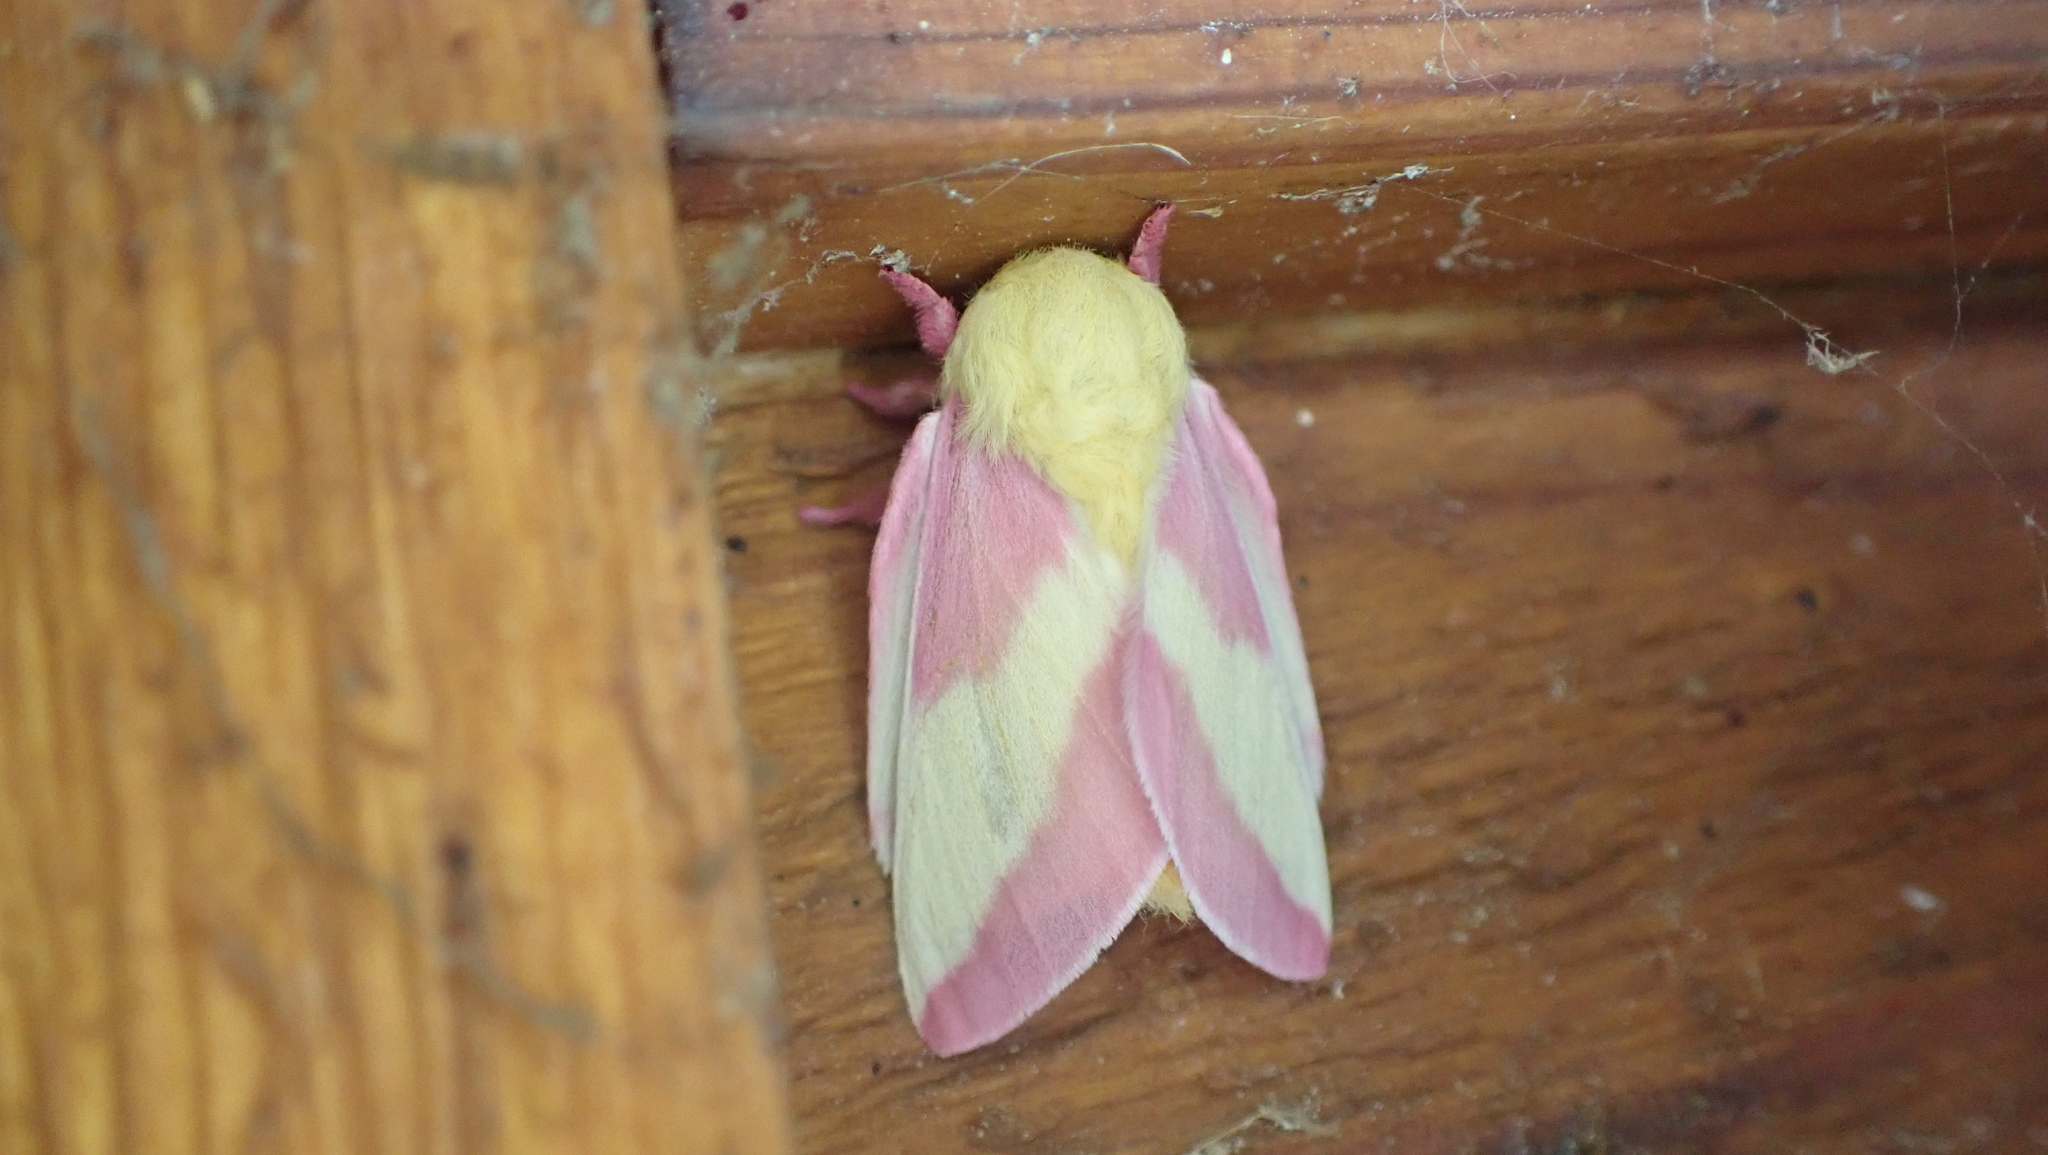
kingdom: Animalia
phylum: Arthropoda
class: Insecta
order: Lepidoptera
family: Saturniidae
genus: Dryocampa
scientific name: Dryocampa rubicunda
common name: Rosy maple moth
